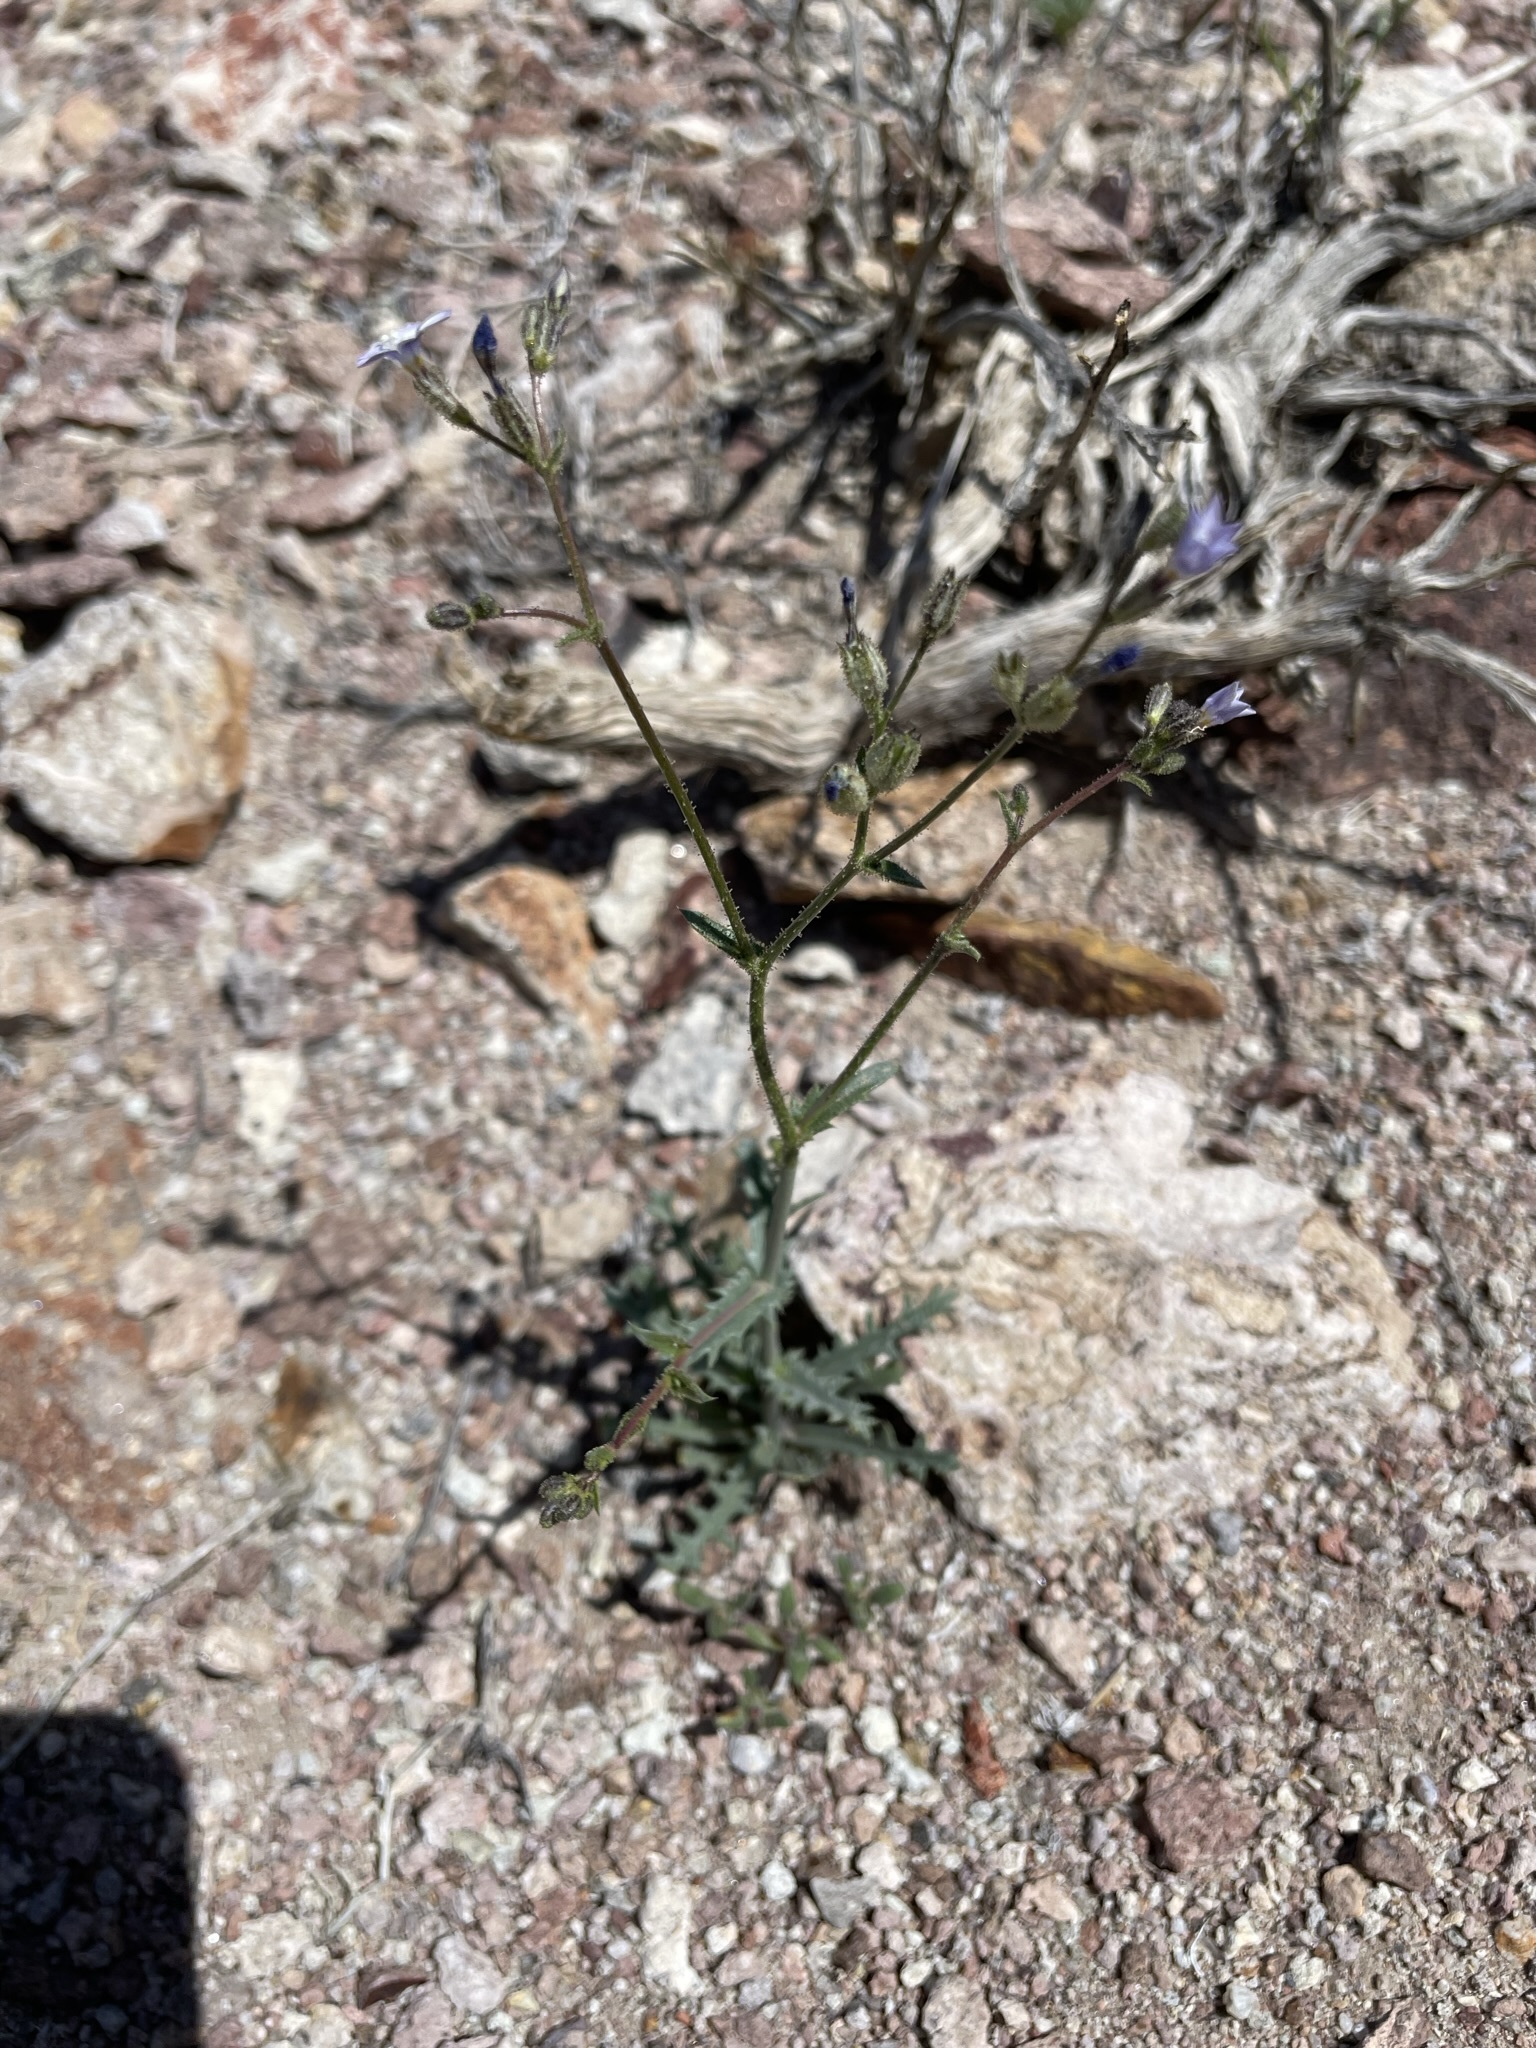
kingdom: Plantae
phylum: Tracheophyta
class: Magnoliopsida
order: Ericales
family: Polemoniaceae
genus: Gilia
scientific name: Gilia sinuata
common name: Rosy gilia
